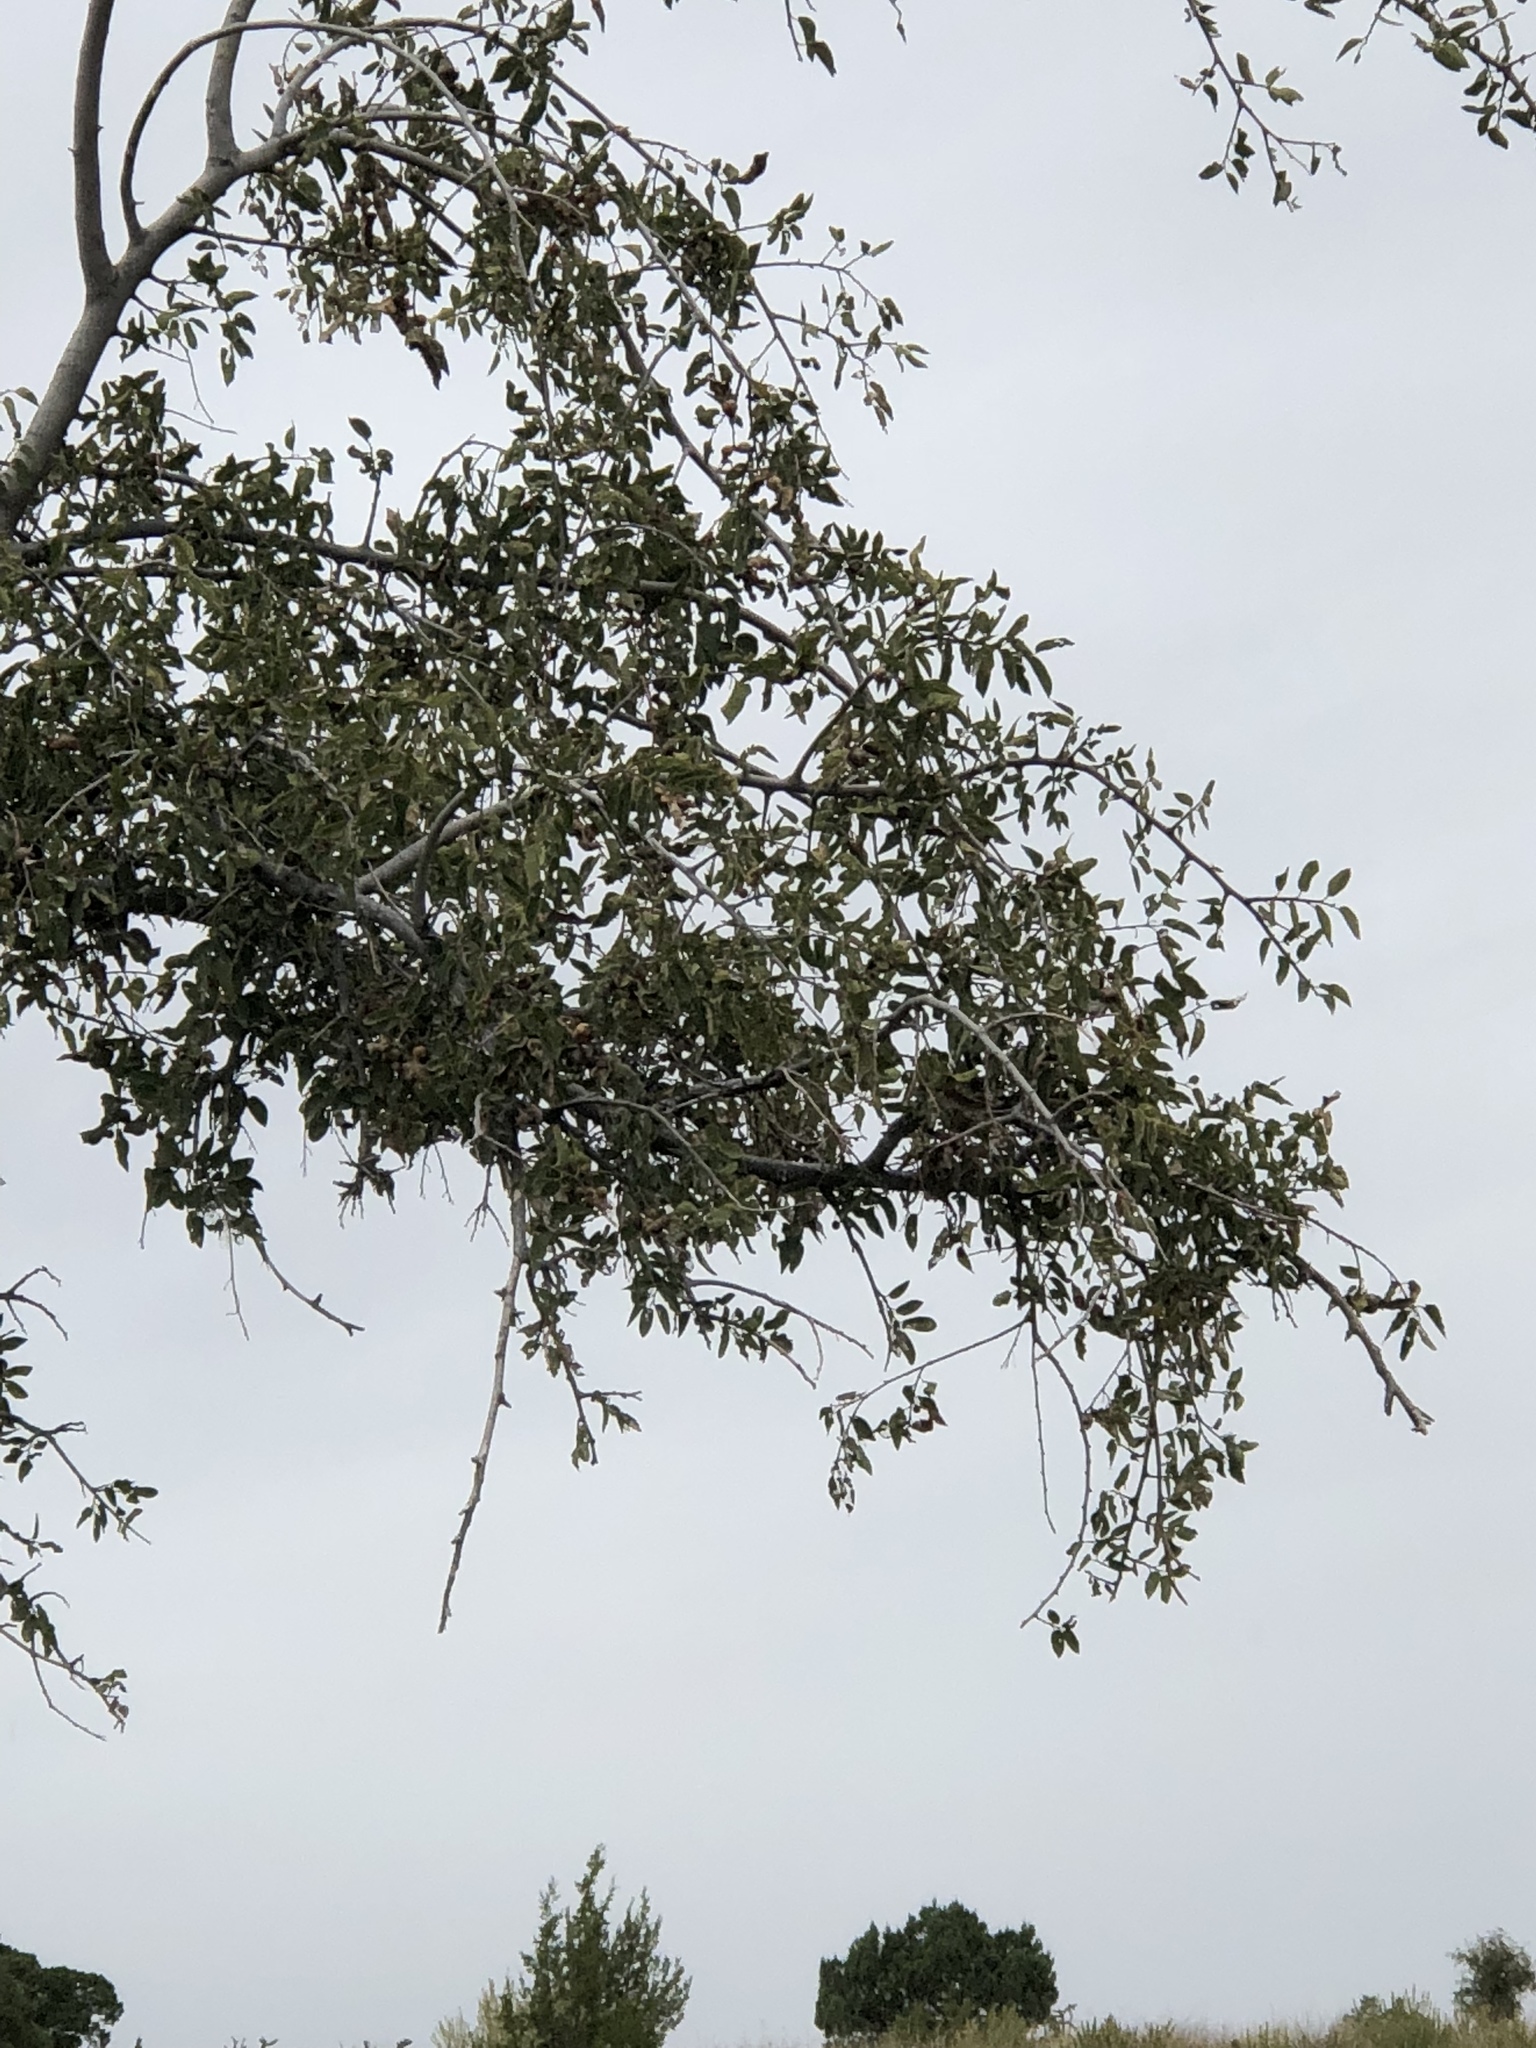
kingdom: Plantae
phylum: Tracheophyta
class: Magnoliopsida
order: Rosales
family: Cannabaceae
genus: Celtis
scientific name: Celtis reticulata
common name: Netleaf hackberry
